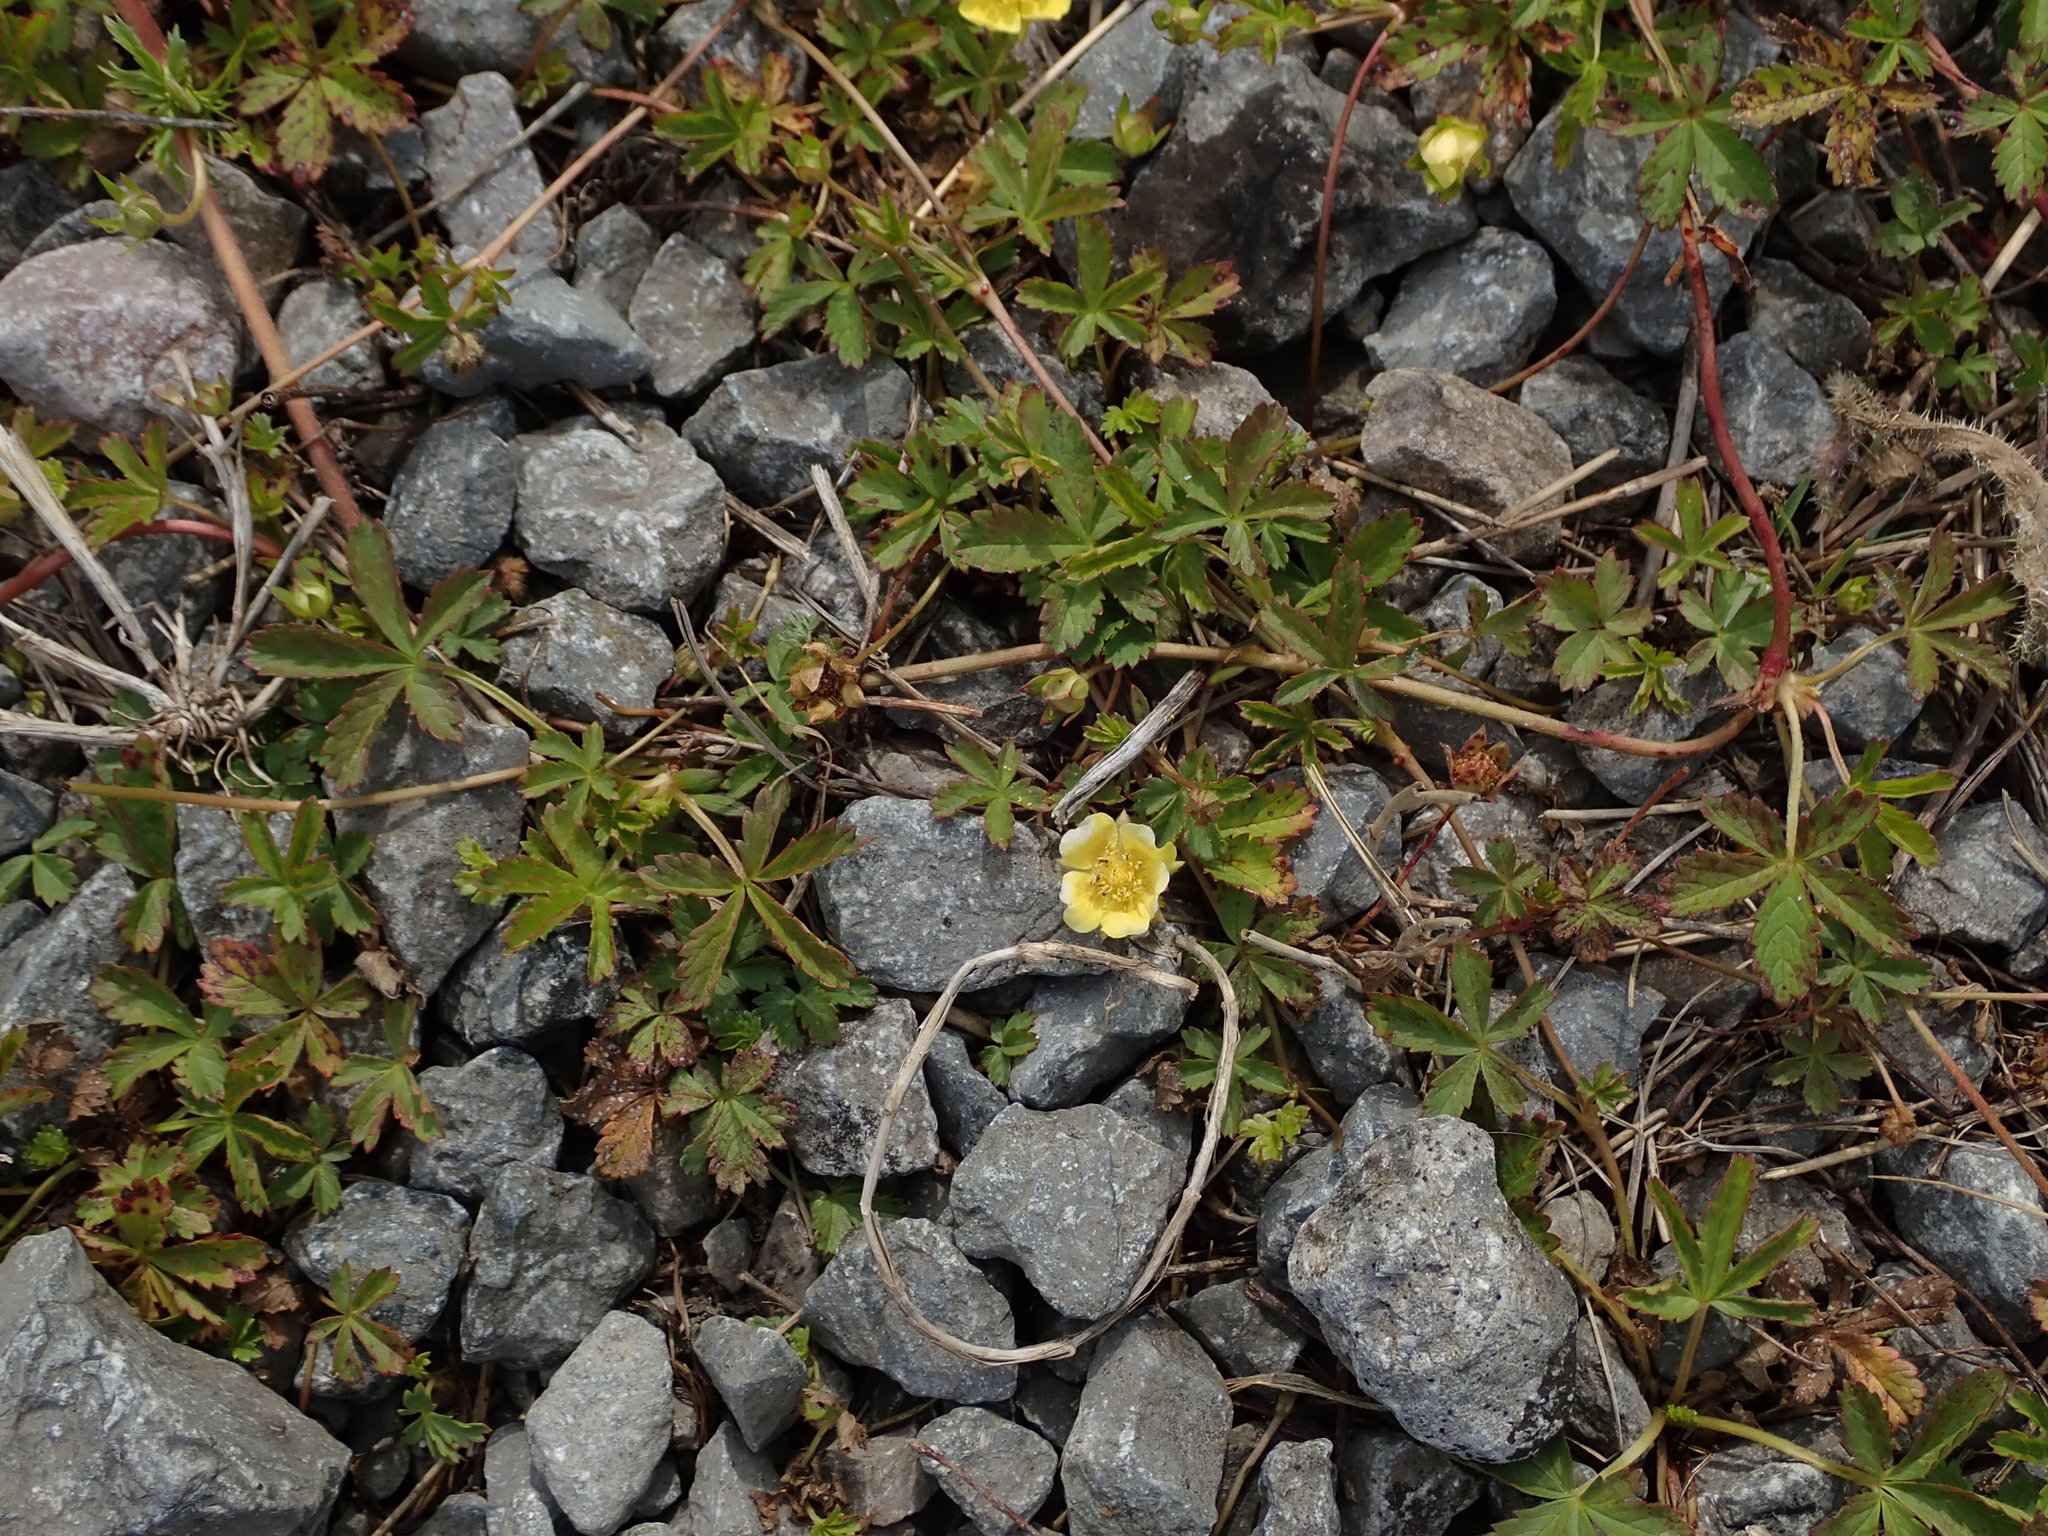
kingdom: Plantae
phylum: Tracheophyta
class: Magnoliopsida
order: Rosales
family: Rosaceae
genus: Potentilla
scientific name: Potentilla reptans
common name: Creeping cinquefoil
